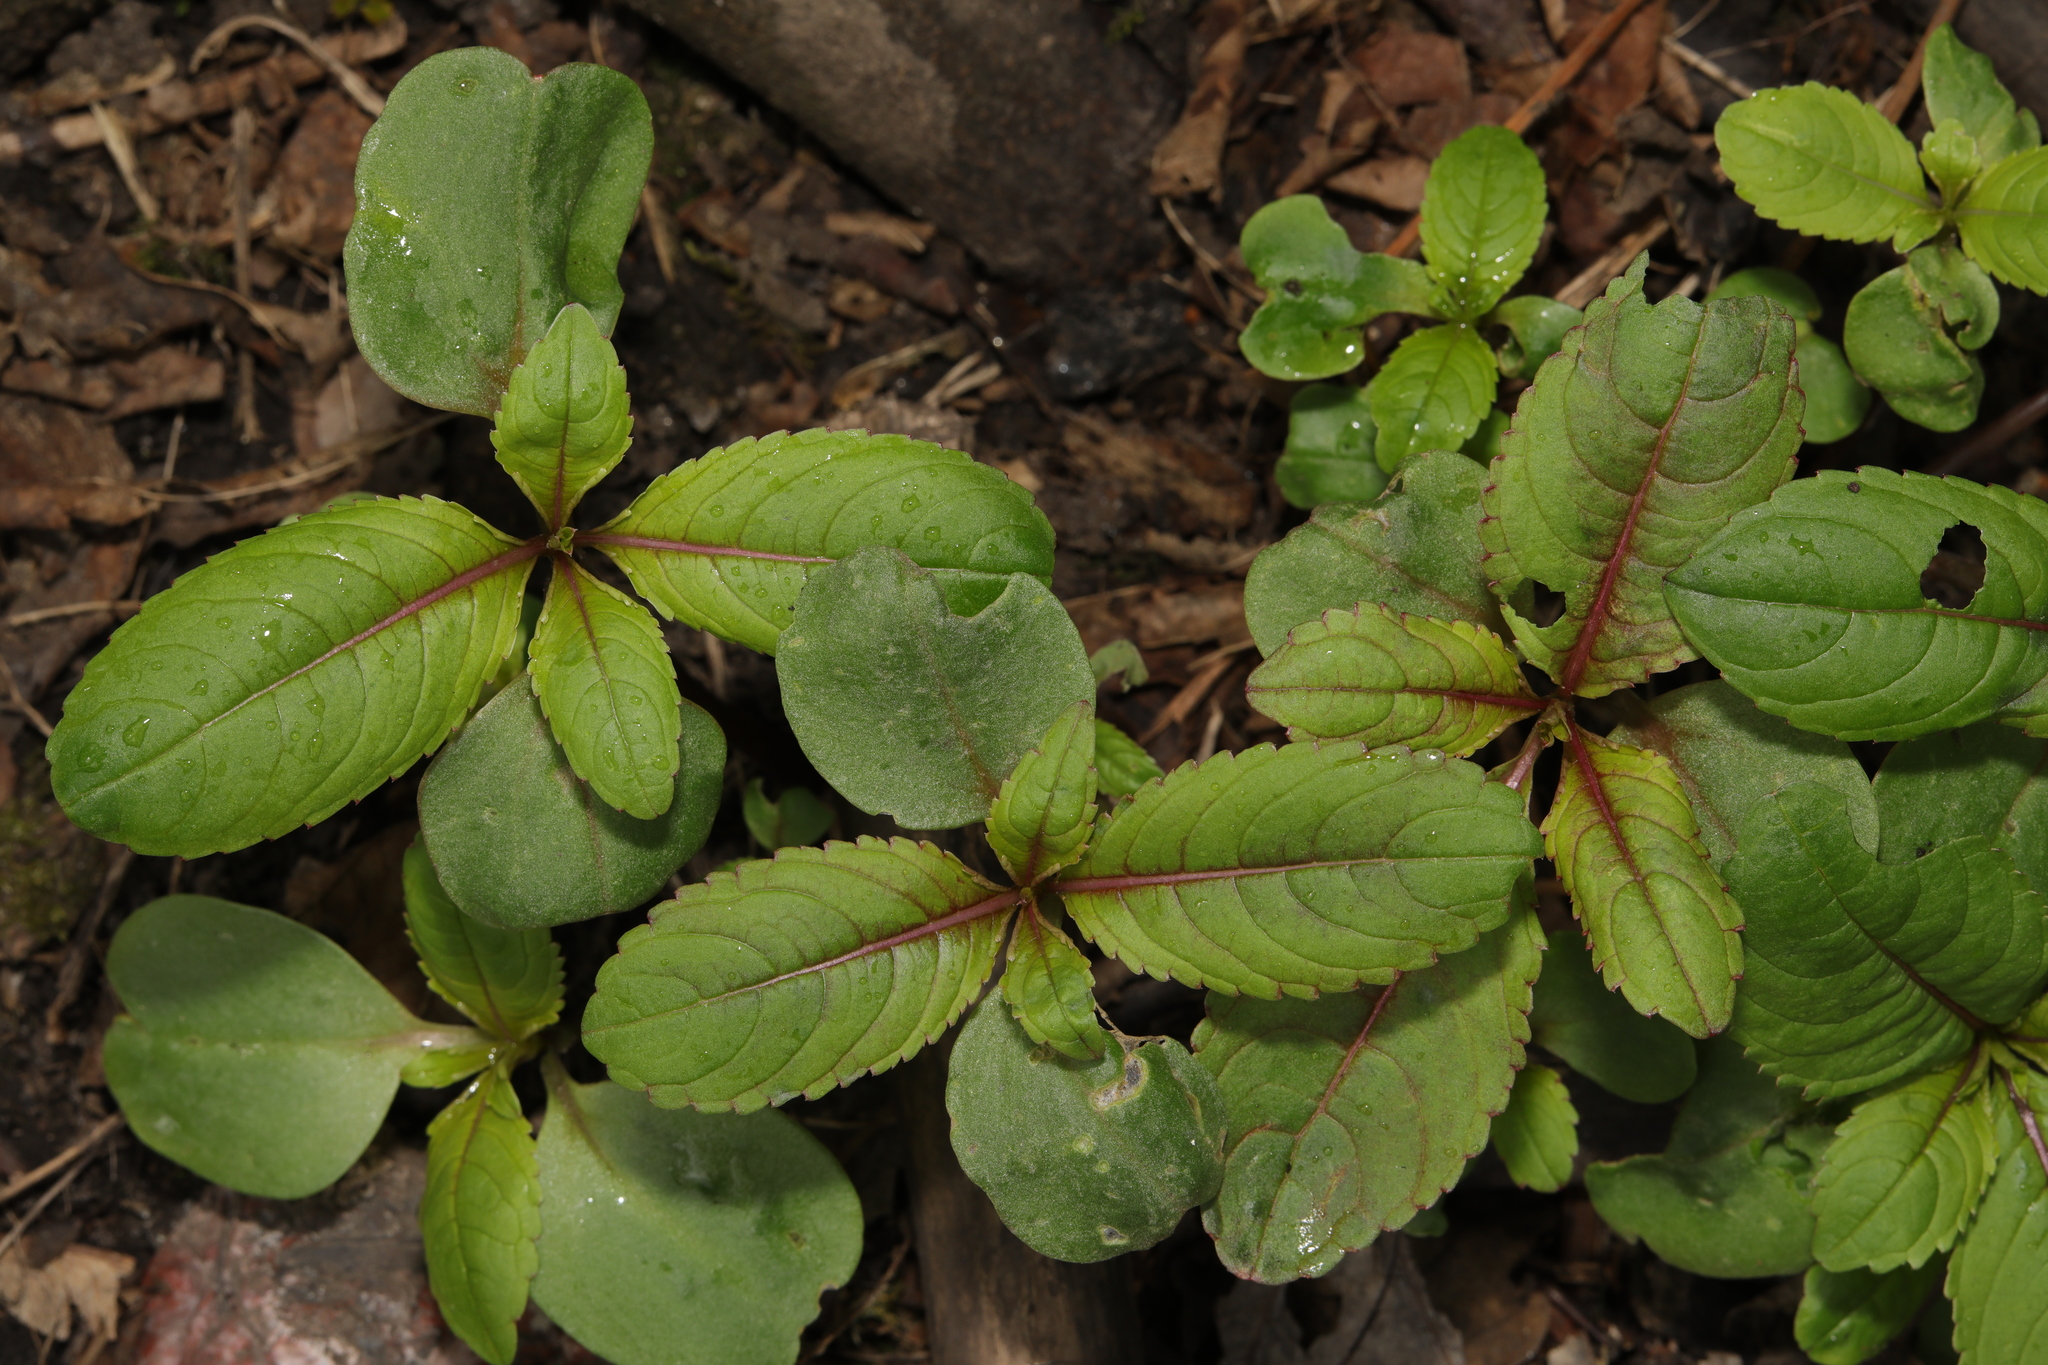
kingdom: Plantae
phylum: Tracheophyta
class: Magnoliopsida
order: Ericales
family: Balsaminaceae
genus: Impatiens
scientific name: Impatiens glandulifera
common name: Himalayan balsam
